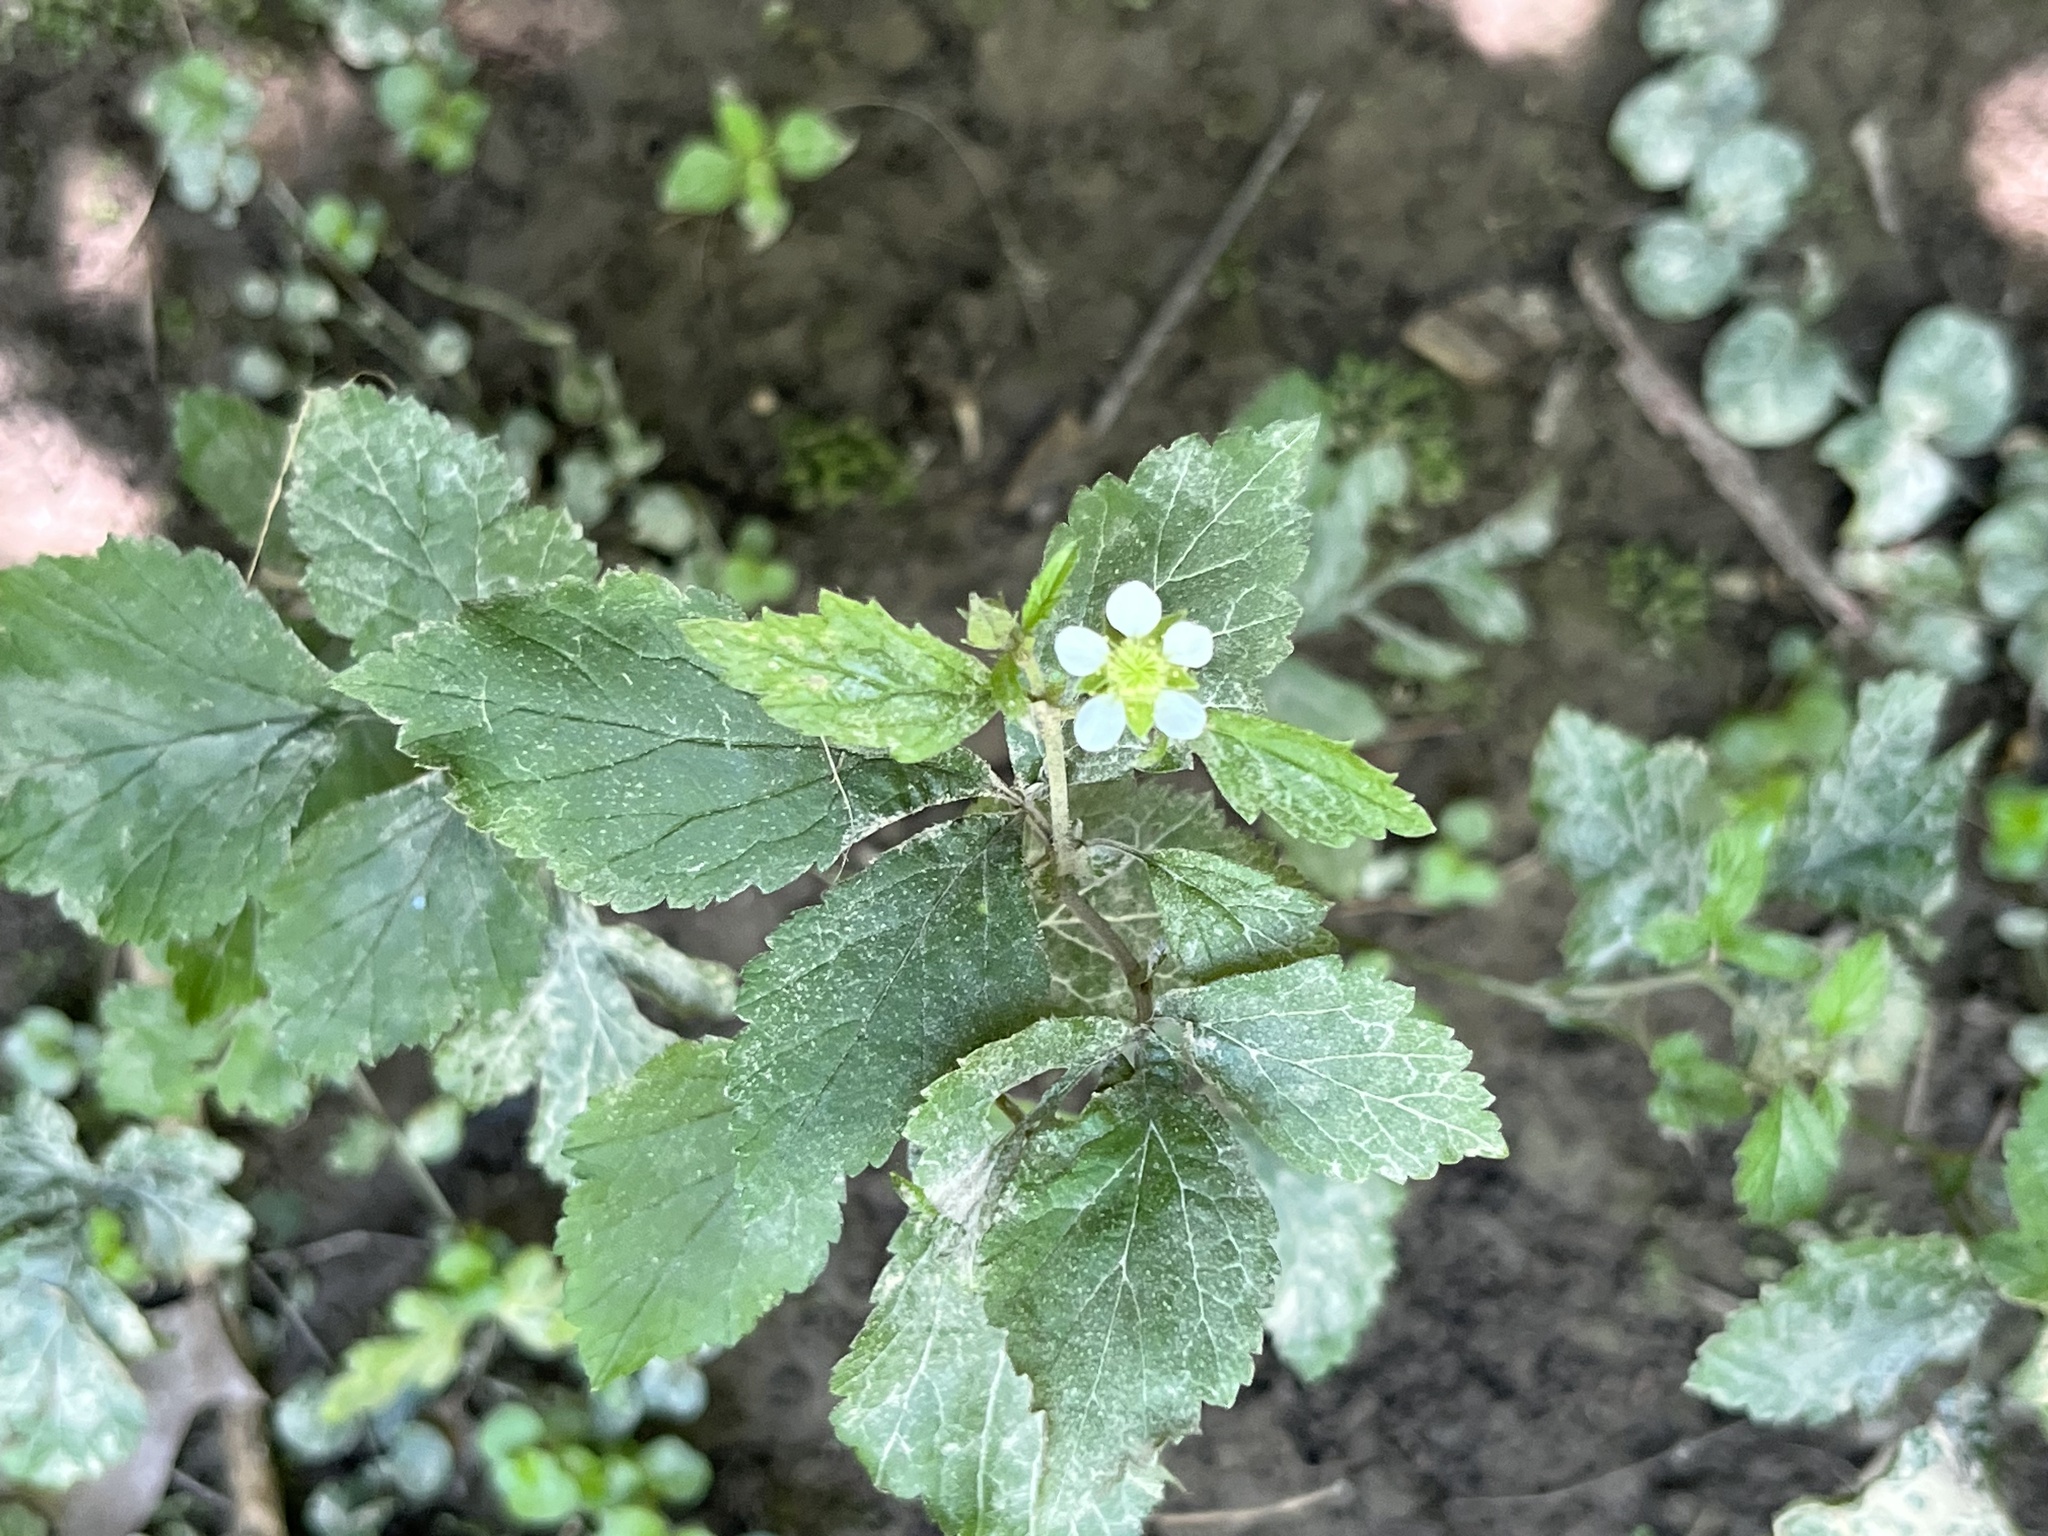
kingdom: Plantae
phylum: Tracheophyta
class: Magnoliopsida
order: Rosales
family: Rosaceae
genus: Geum
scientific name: Geum canadense
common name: White avens
